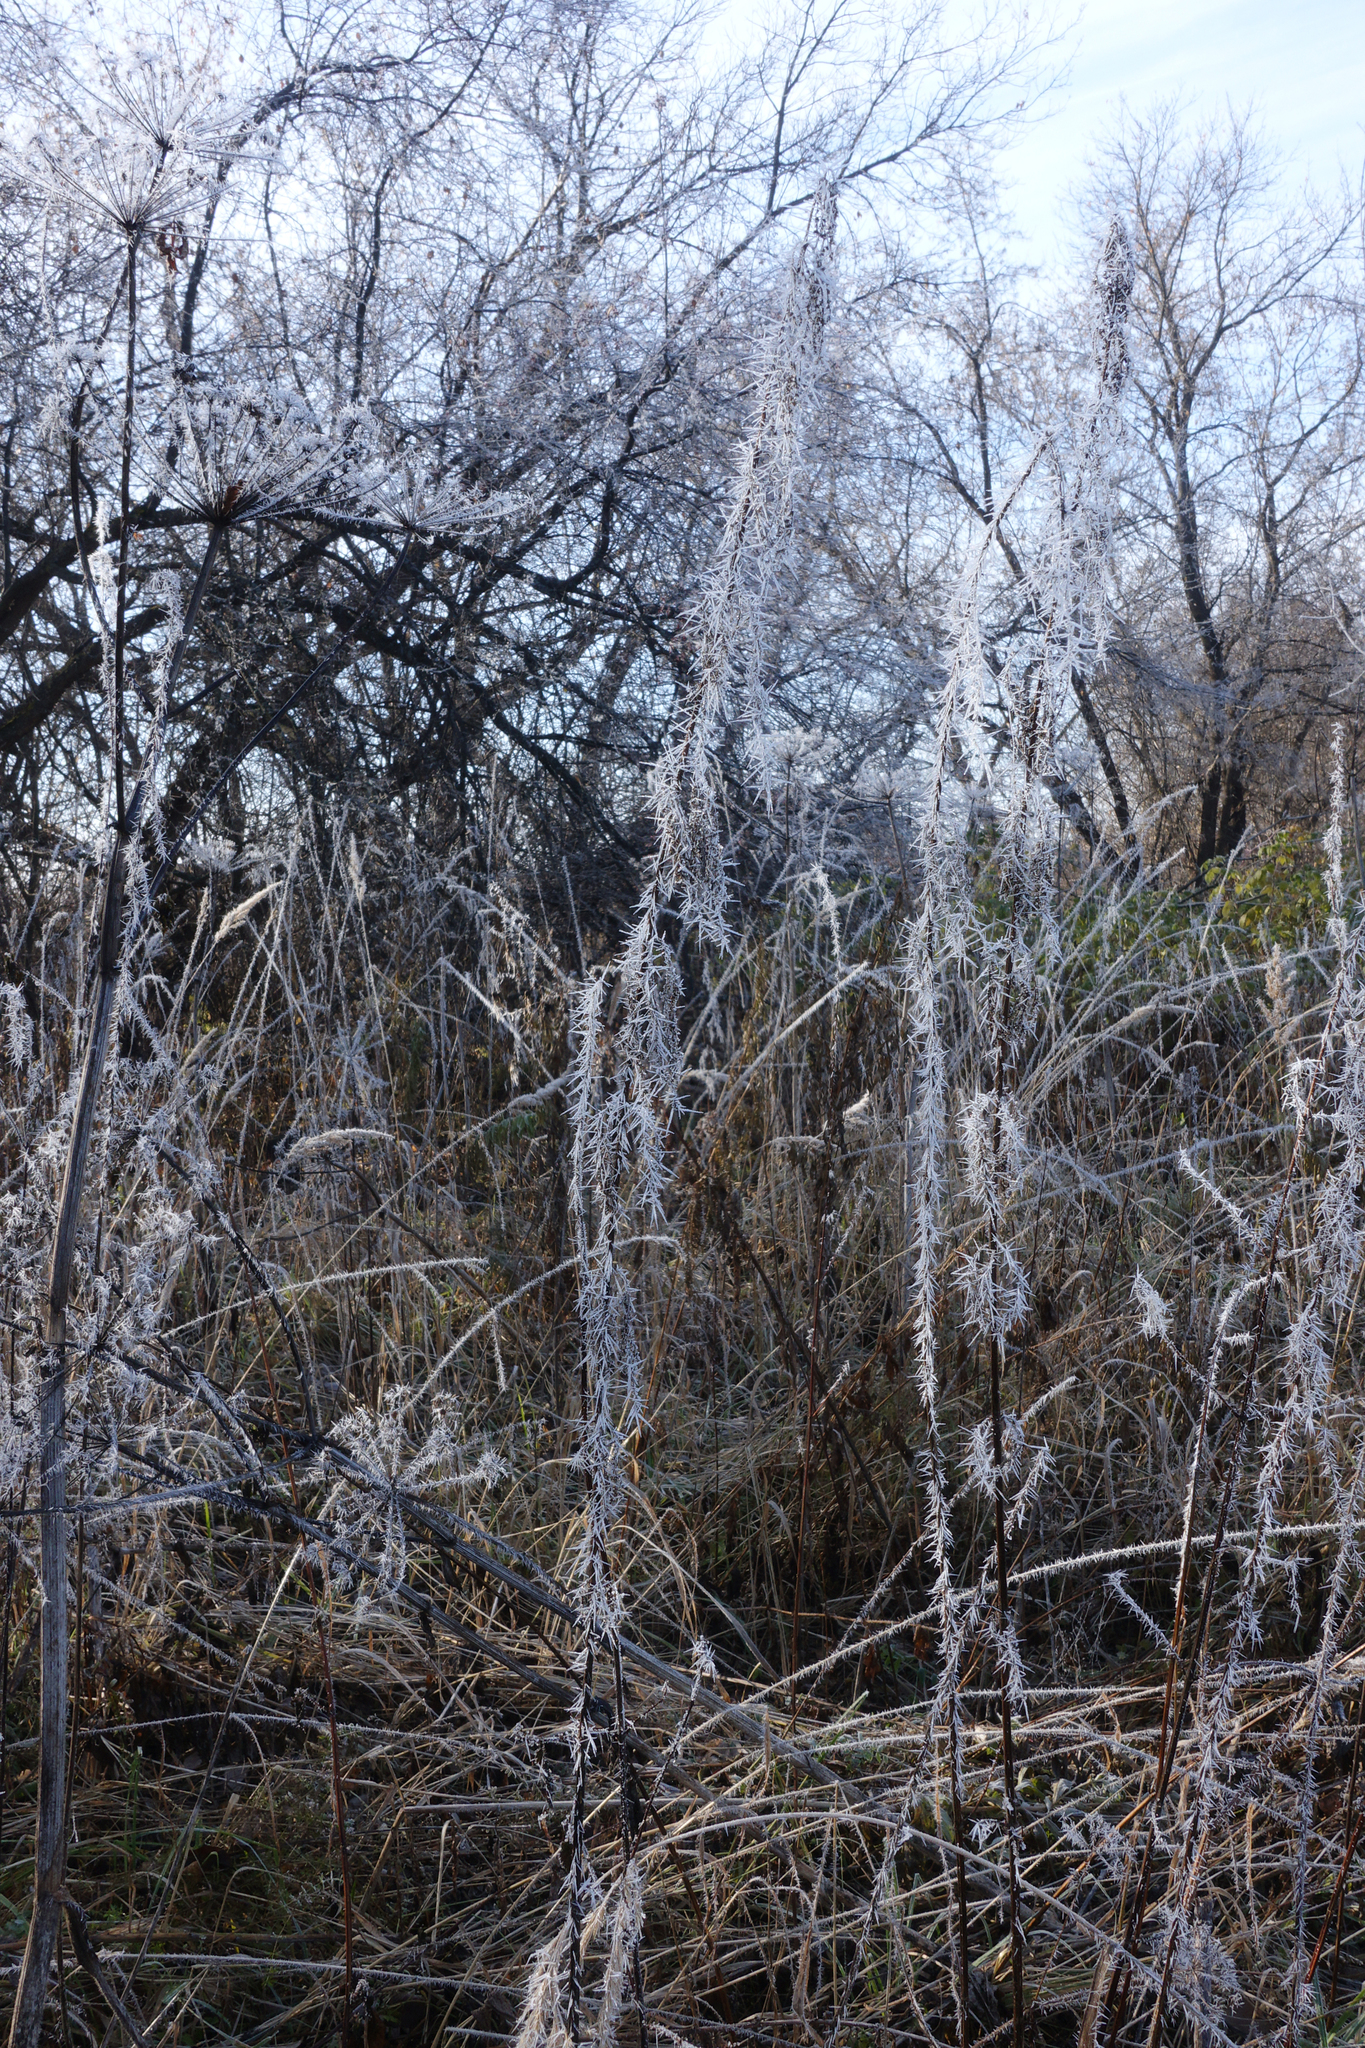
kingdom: Plantae
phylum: Tracheophyta
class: Magnoliopsida
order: Rosales
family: Urticaceae
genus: Urtica
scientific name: Urtica dioica
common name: Common nettle
